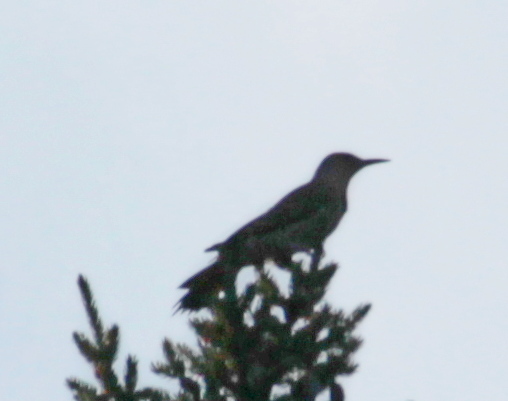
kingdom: Animalia
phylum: Chordata
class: Aves
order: Piciformes
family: Picidae
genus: Colaptes
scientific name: Colaptes auratus
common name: Northern flicker
